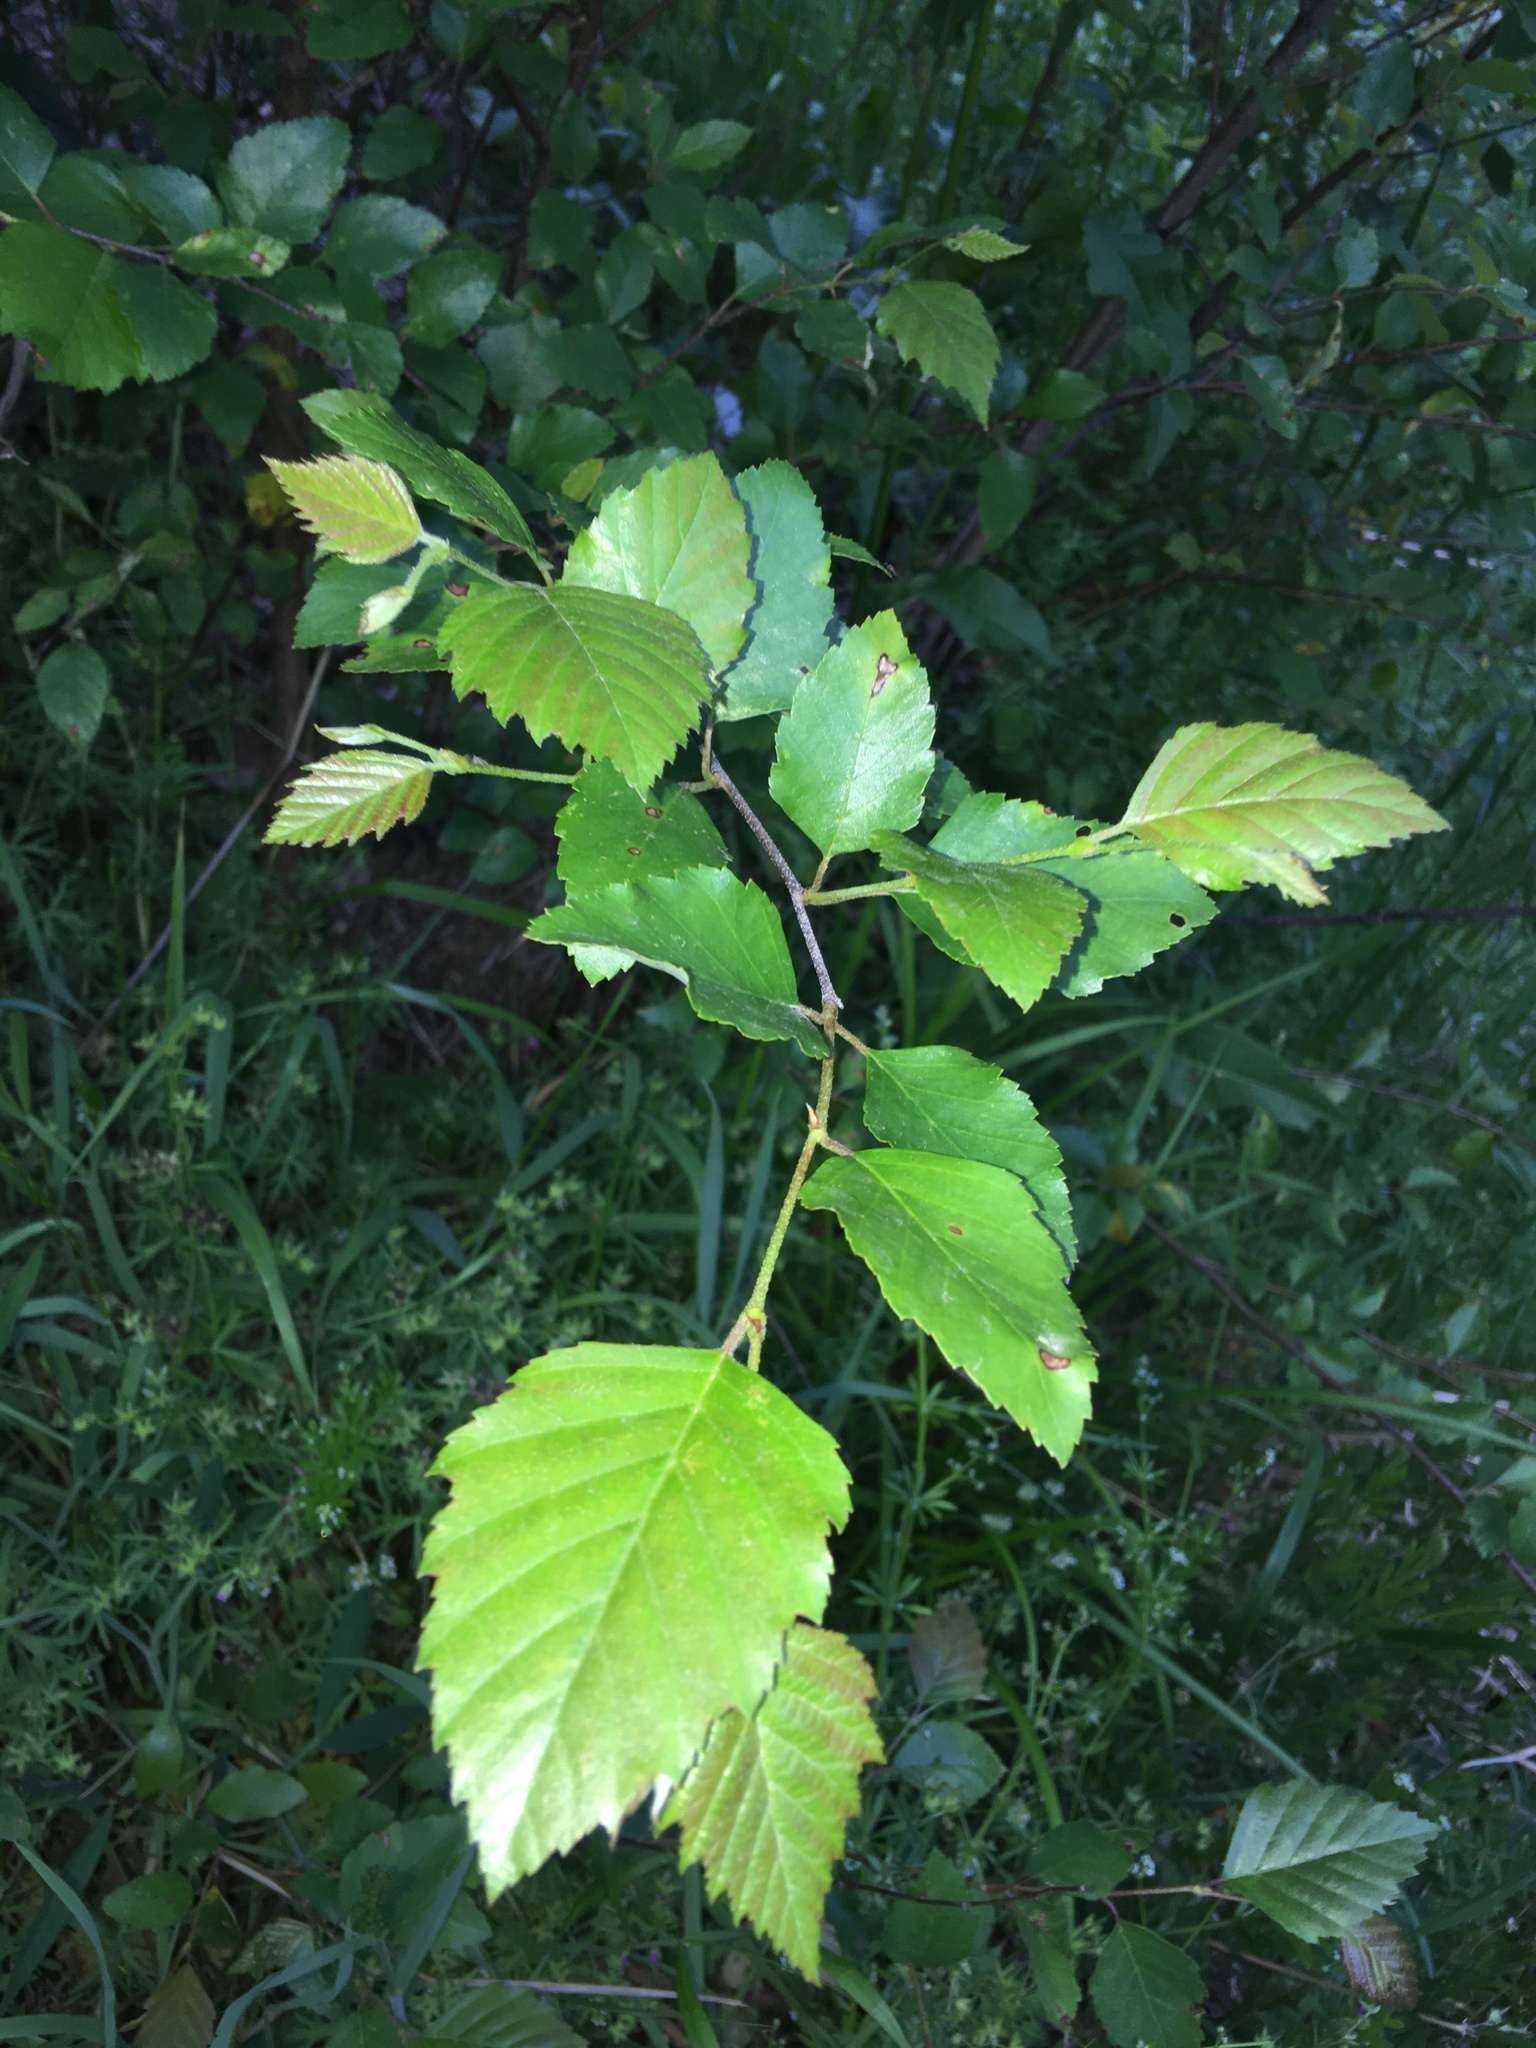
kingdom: Plantae
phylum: Tracheophyta
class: Magnoliopsida
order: Fagales
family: Betulaceae
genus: Betula
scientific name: Betula nigra
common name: Black birch
